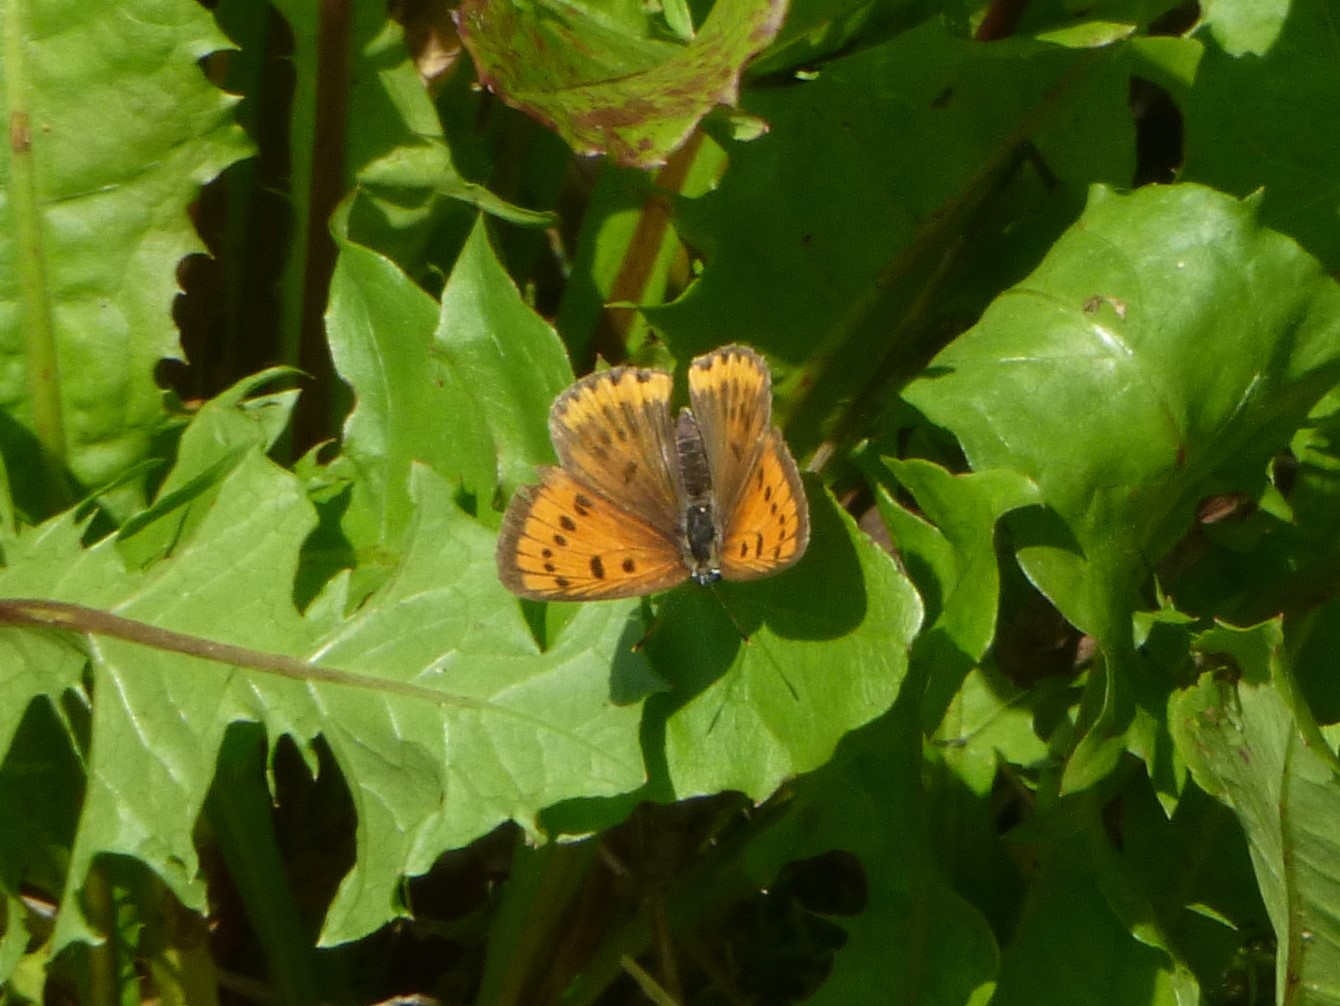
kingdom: Animalia
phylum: Arthropoda
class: Insecta
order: Lepidoptera
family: Lycaenidae
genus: Lycaena
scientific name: Lycaena dispar
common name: Large copper
